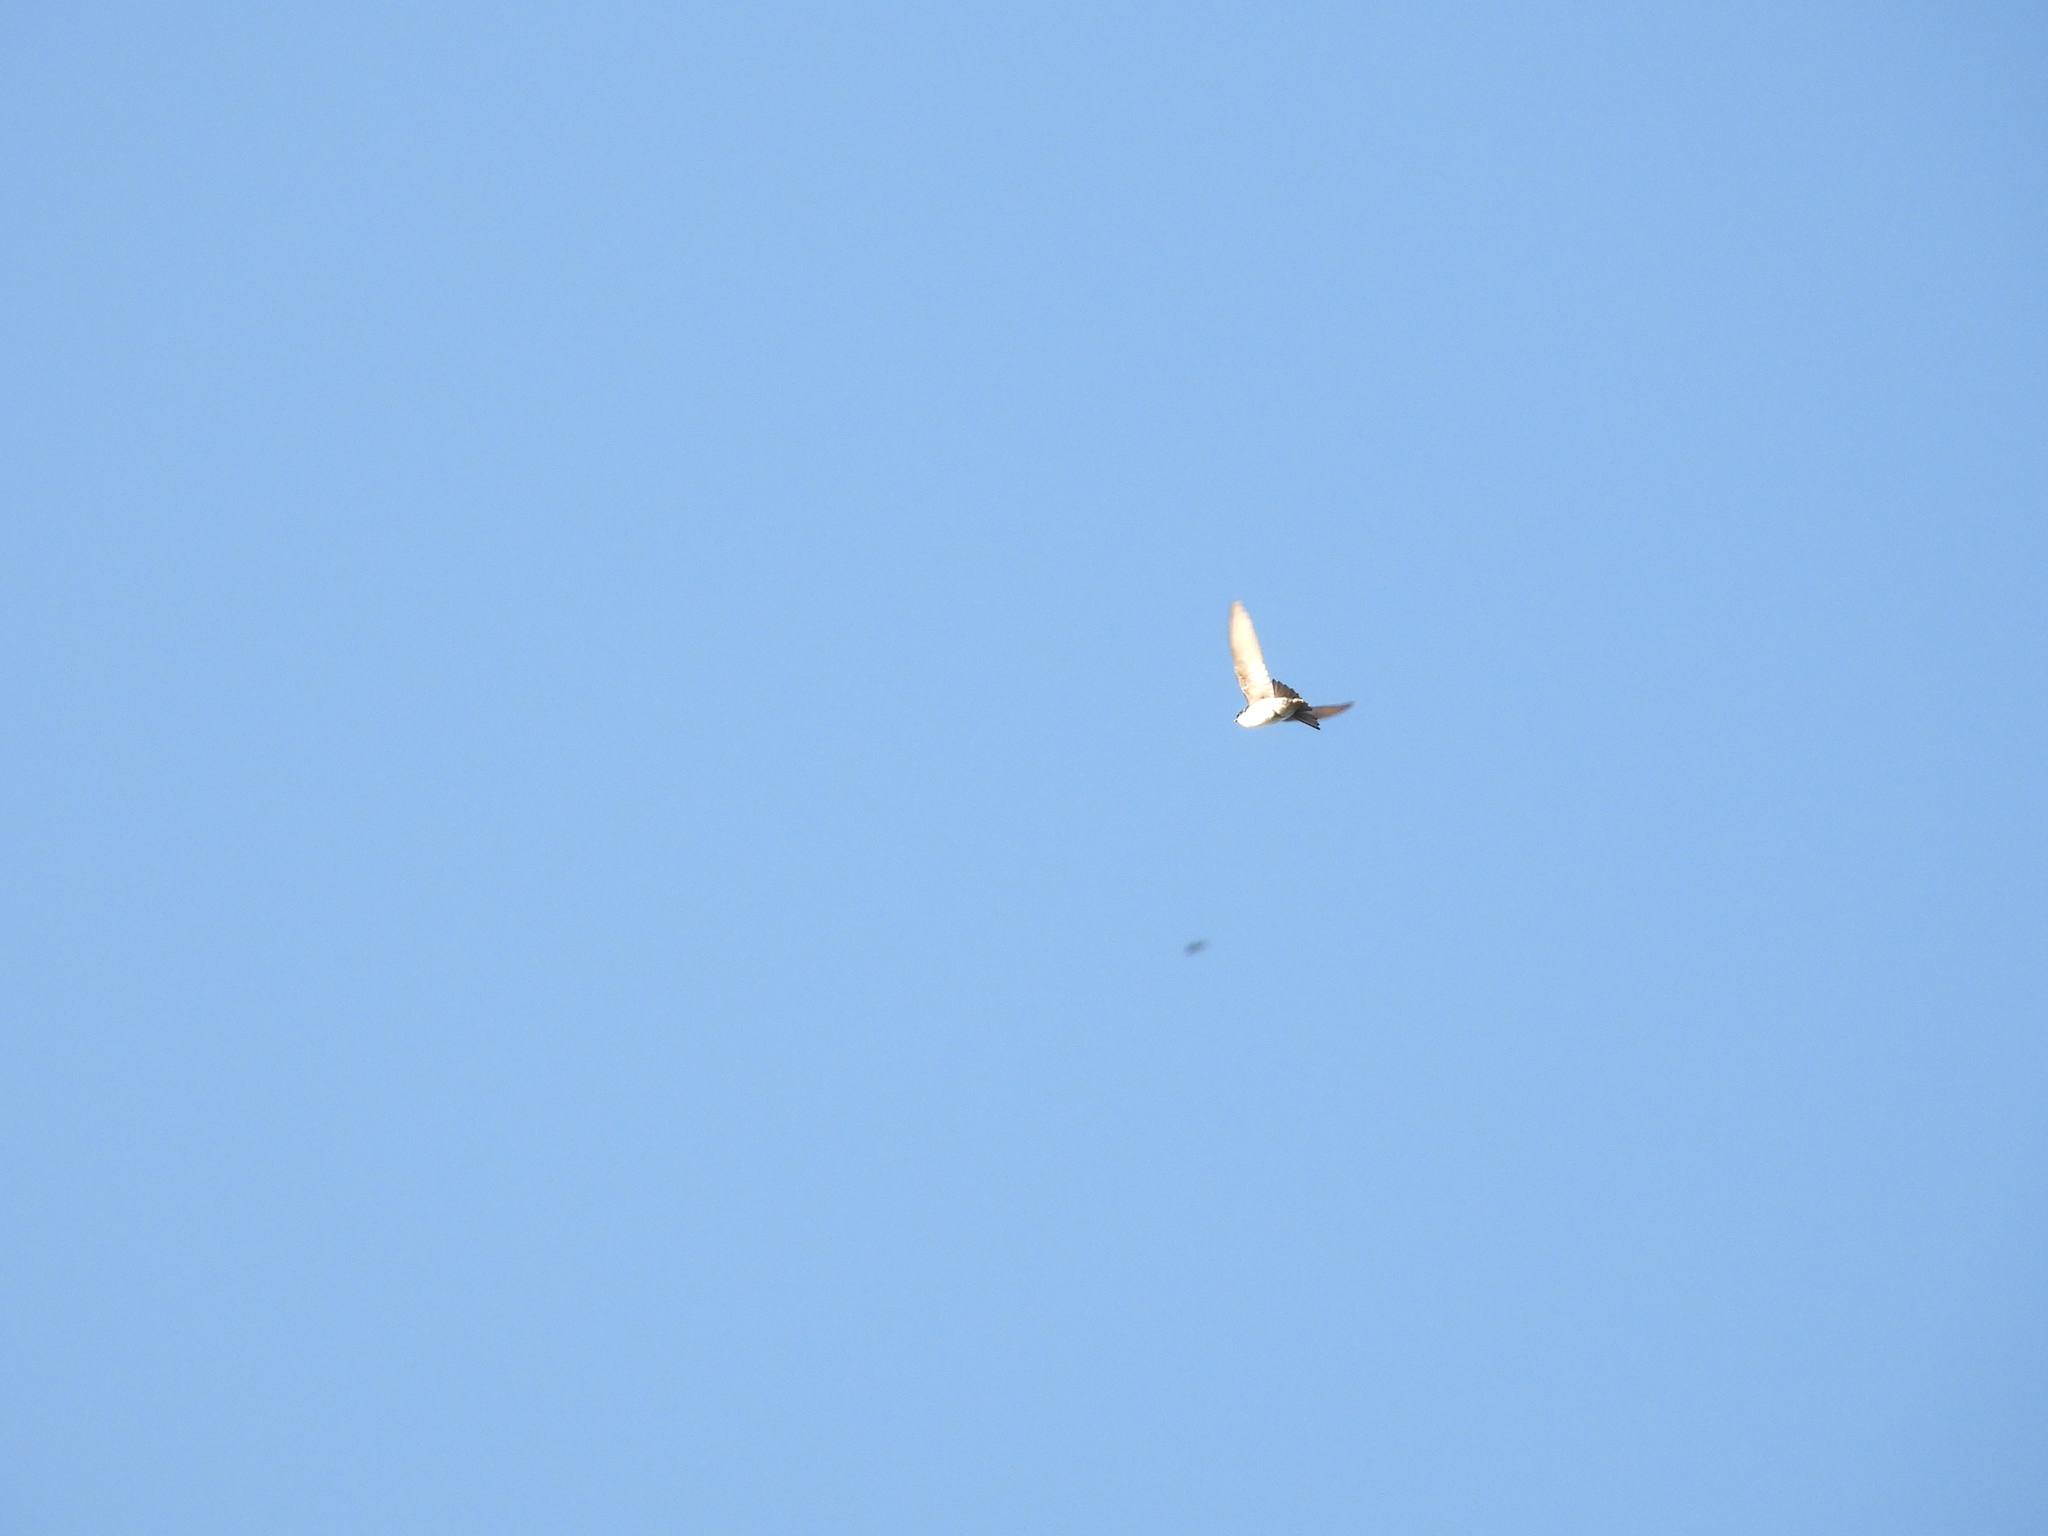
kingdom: Animalia
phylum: Chordata
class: Aves
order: Passeriformes
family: Hirundinidae
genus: Tachycineta
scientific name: Tachycineta bicolor
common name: Tree swallow
